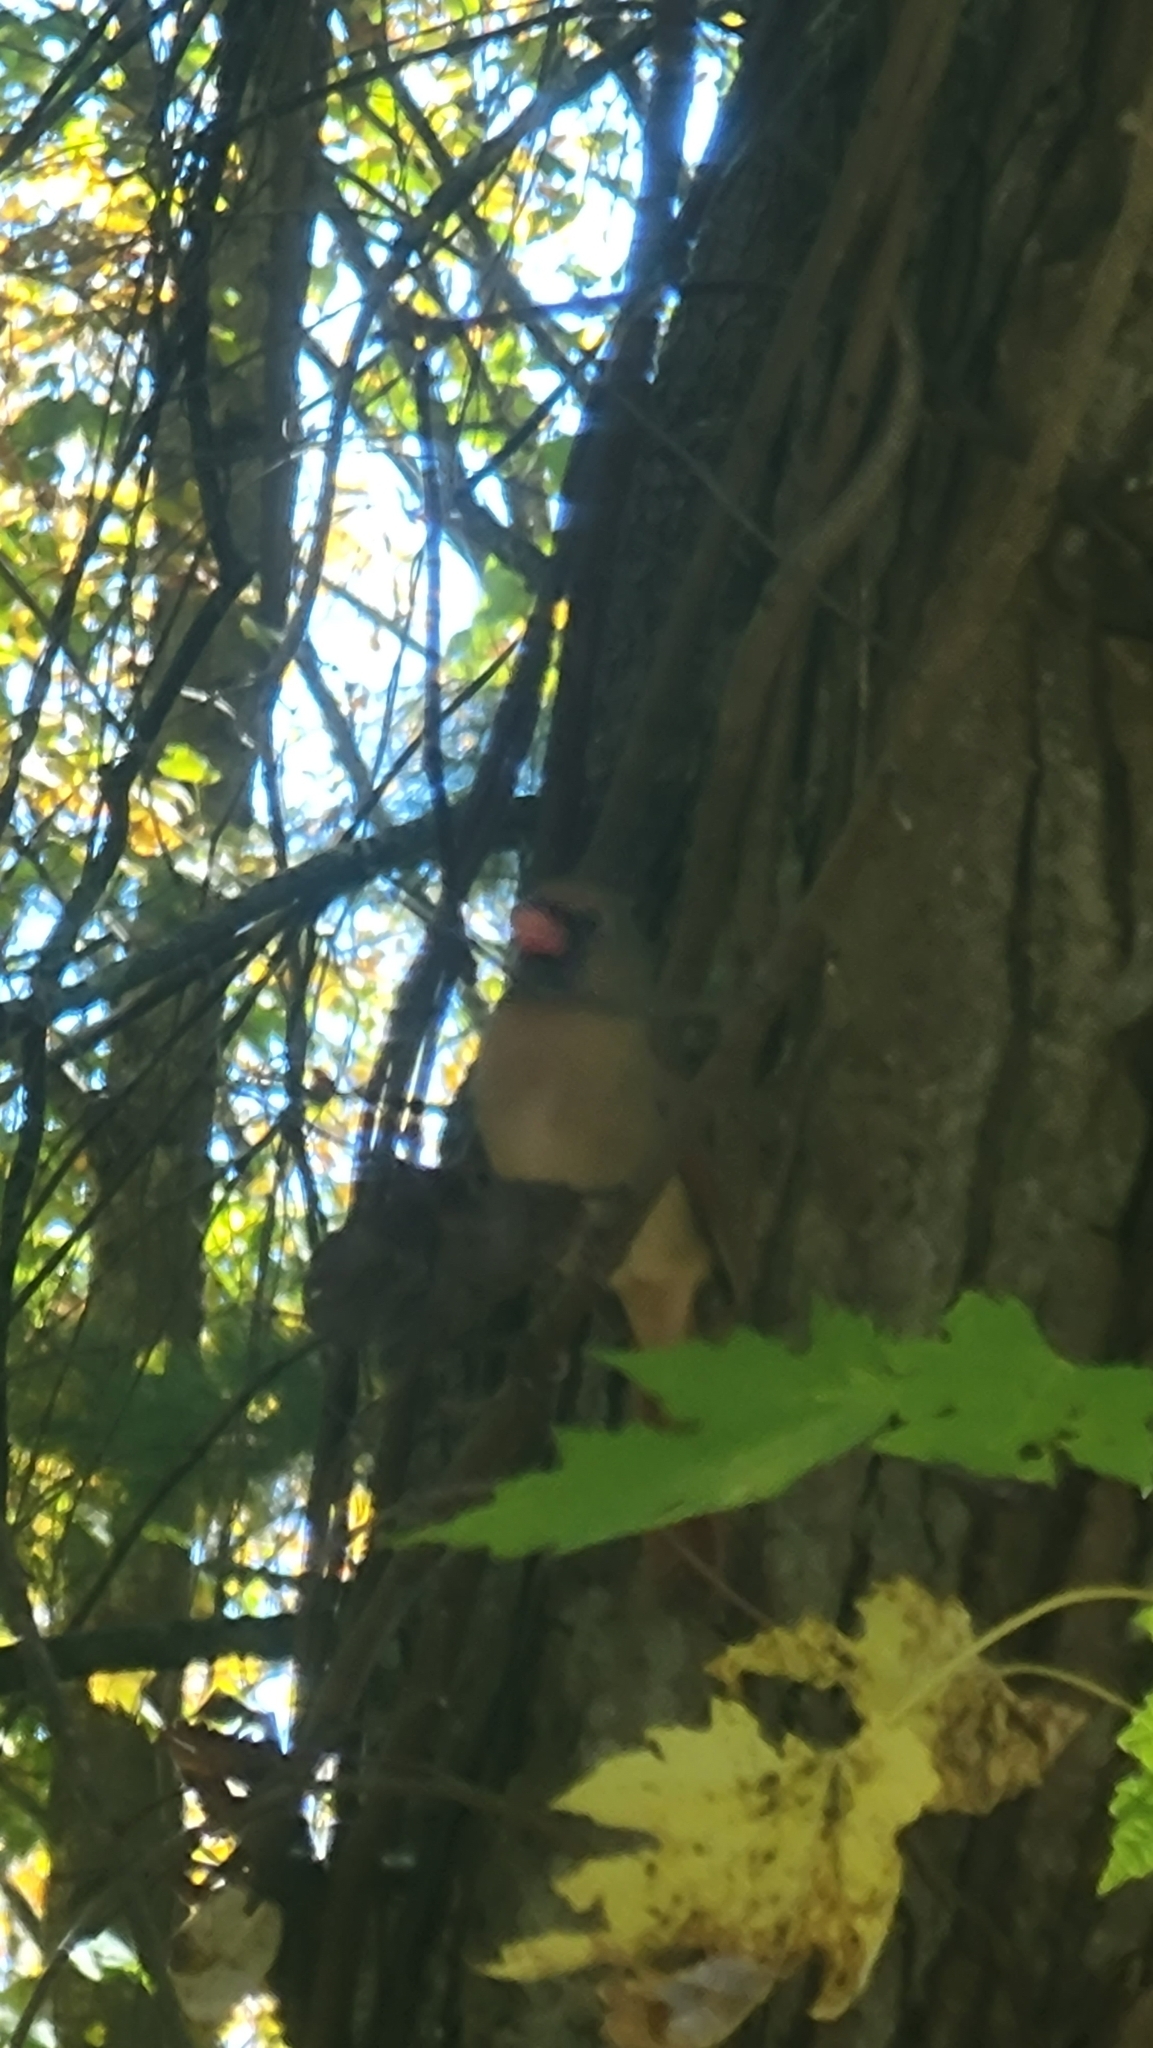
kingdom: Animalia
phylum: Chordata
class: Aves
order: Passeriformes
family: Cardinalidae
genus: Cardinalis
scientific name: Cardinalis cardinalis
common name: Northern cardinal
